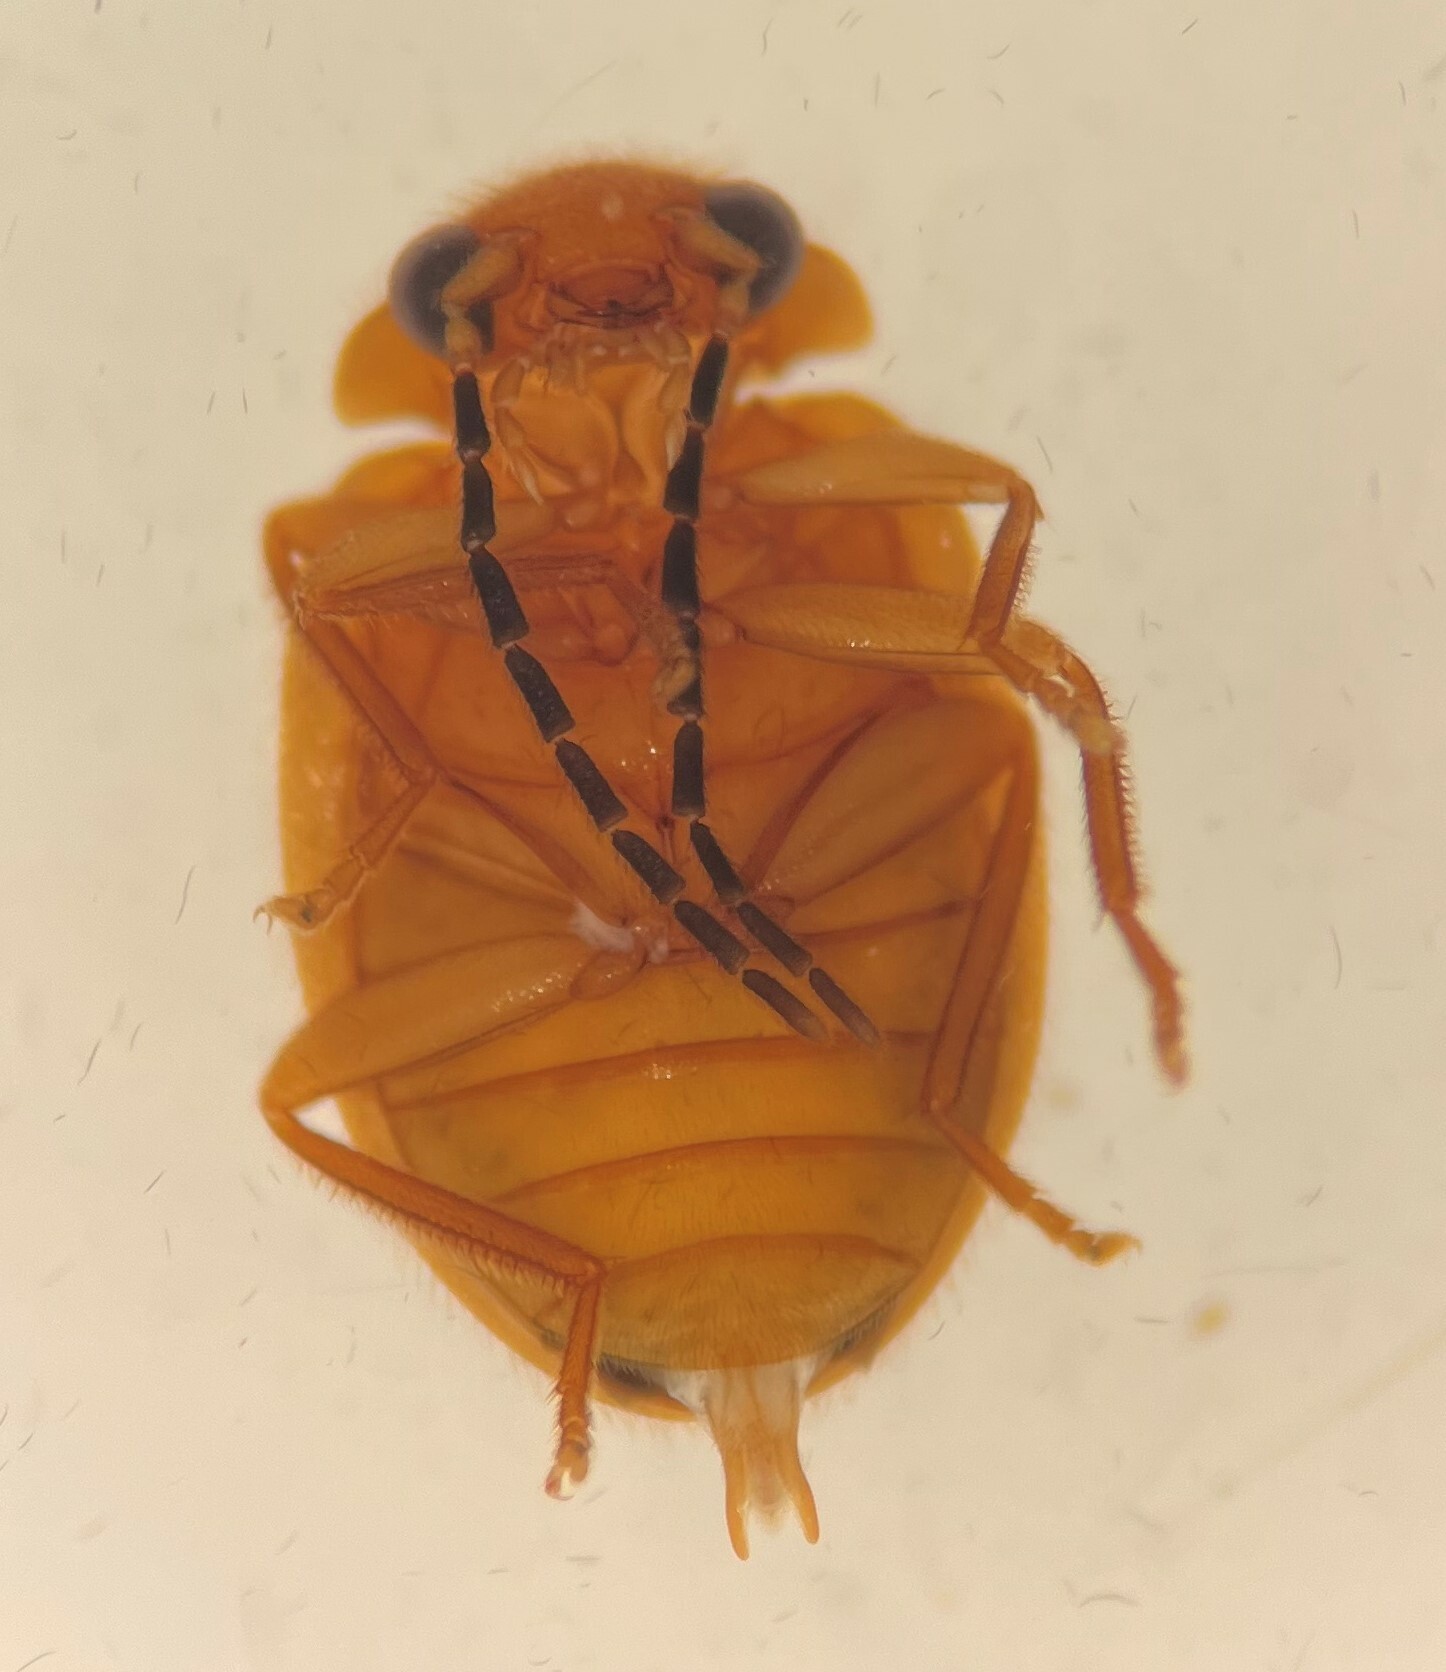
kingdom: Animalia
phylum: Arthropoda
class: Insecta
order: Coleoptera
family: Scirtidae
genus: Prionocyphon
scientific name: Prionocyphon limbatus
